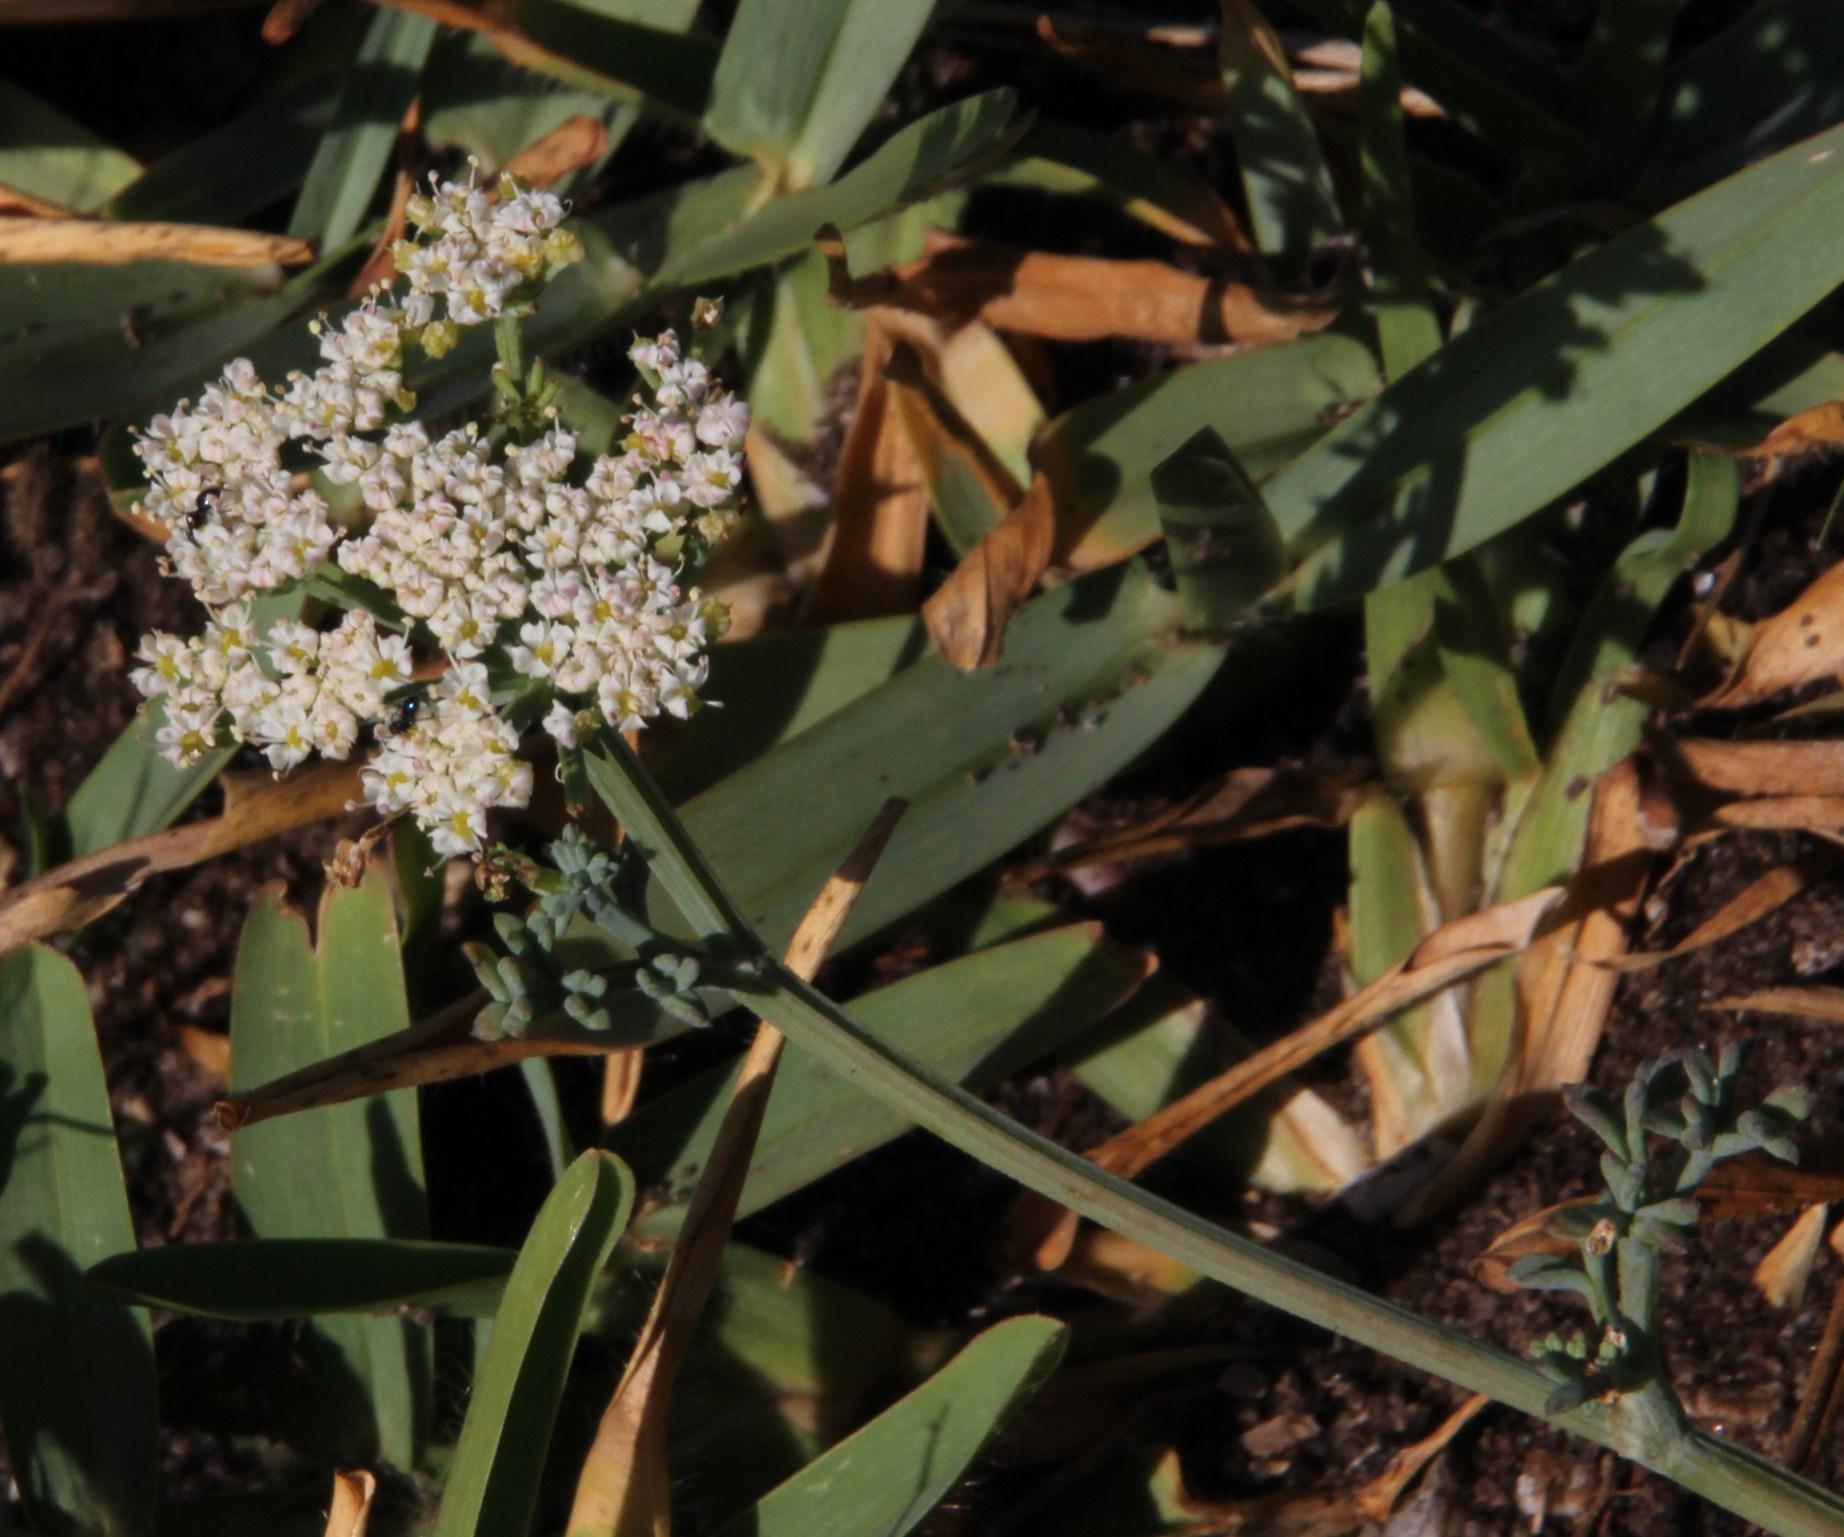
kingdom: Plantae
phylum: Tracheophyta
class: Magnoliopsida
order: Apiales
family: Apiaceae
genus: Dasispermum
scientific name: Dasispermum suffruticosum
